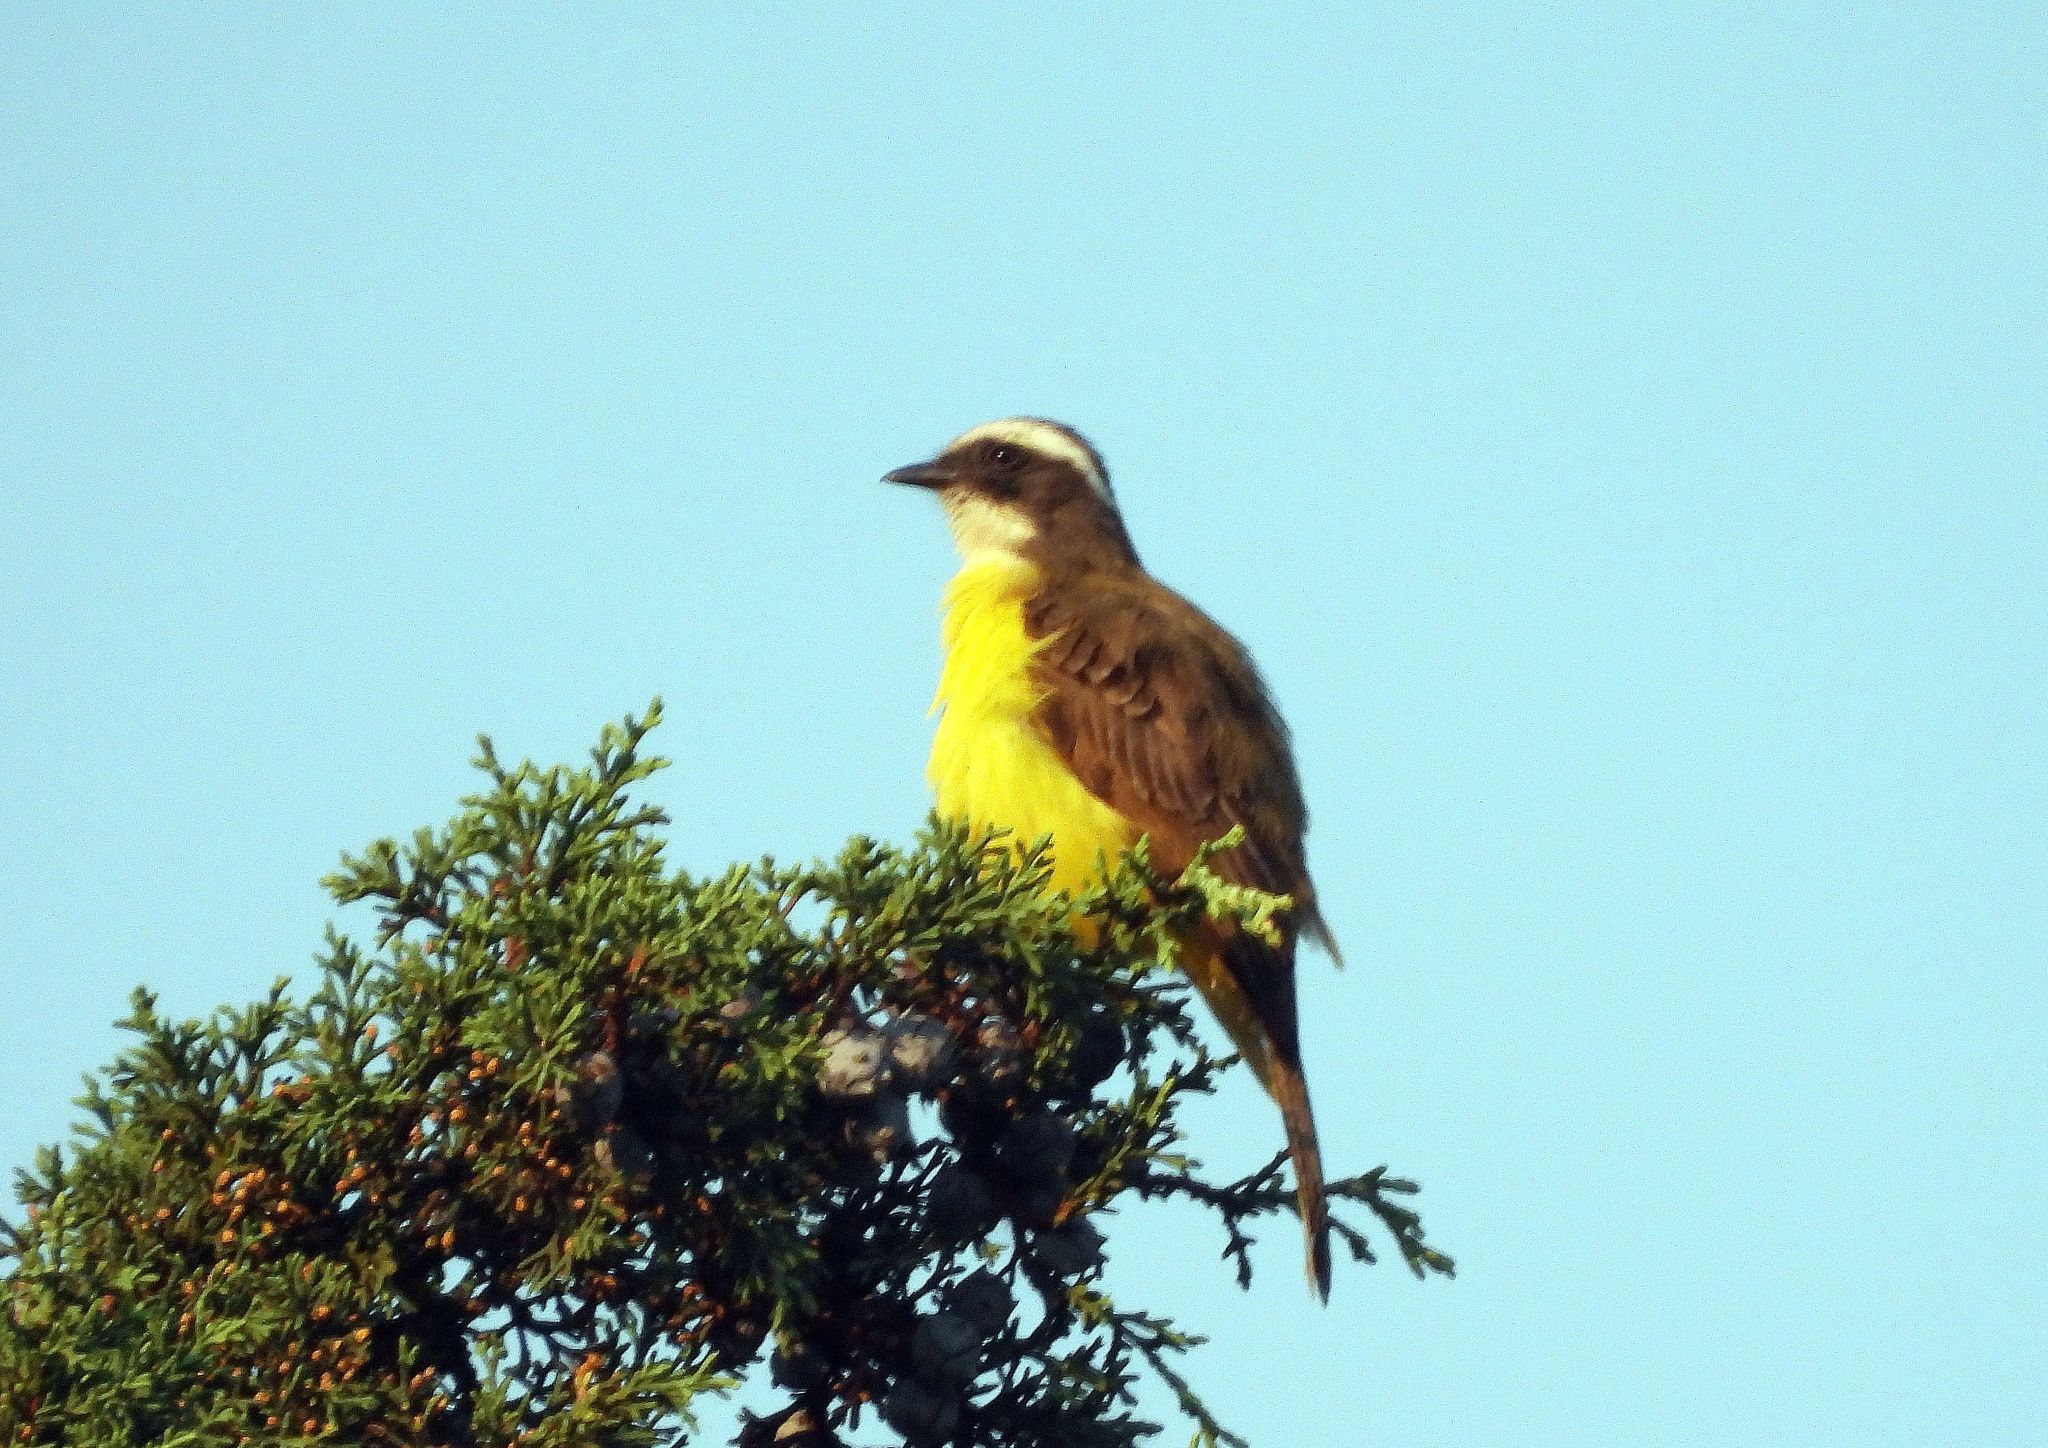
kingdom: Animalia
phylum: Chordata
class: Aves
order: Passeriformes
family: Tyrannidae
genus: Myiozetetes
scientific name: Myiozetetes similis
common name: Social flycatcher
